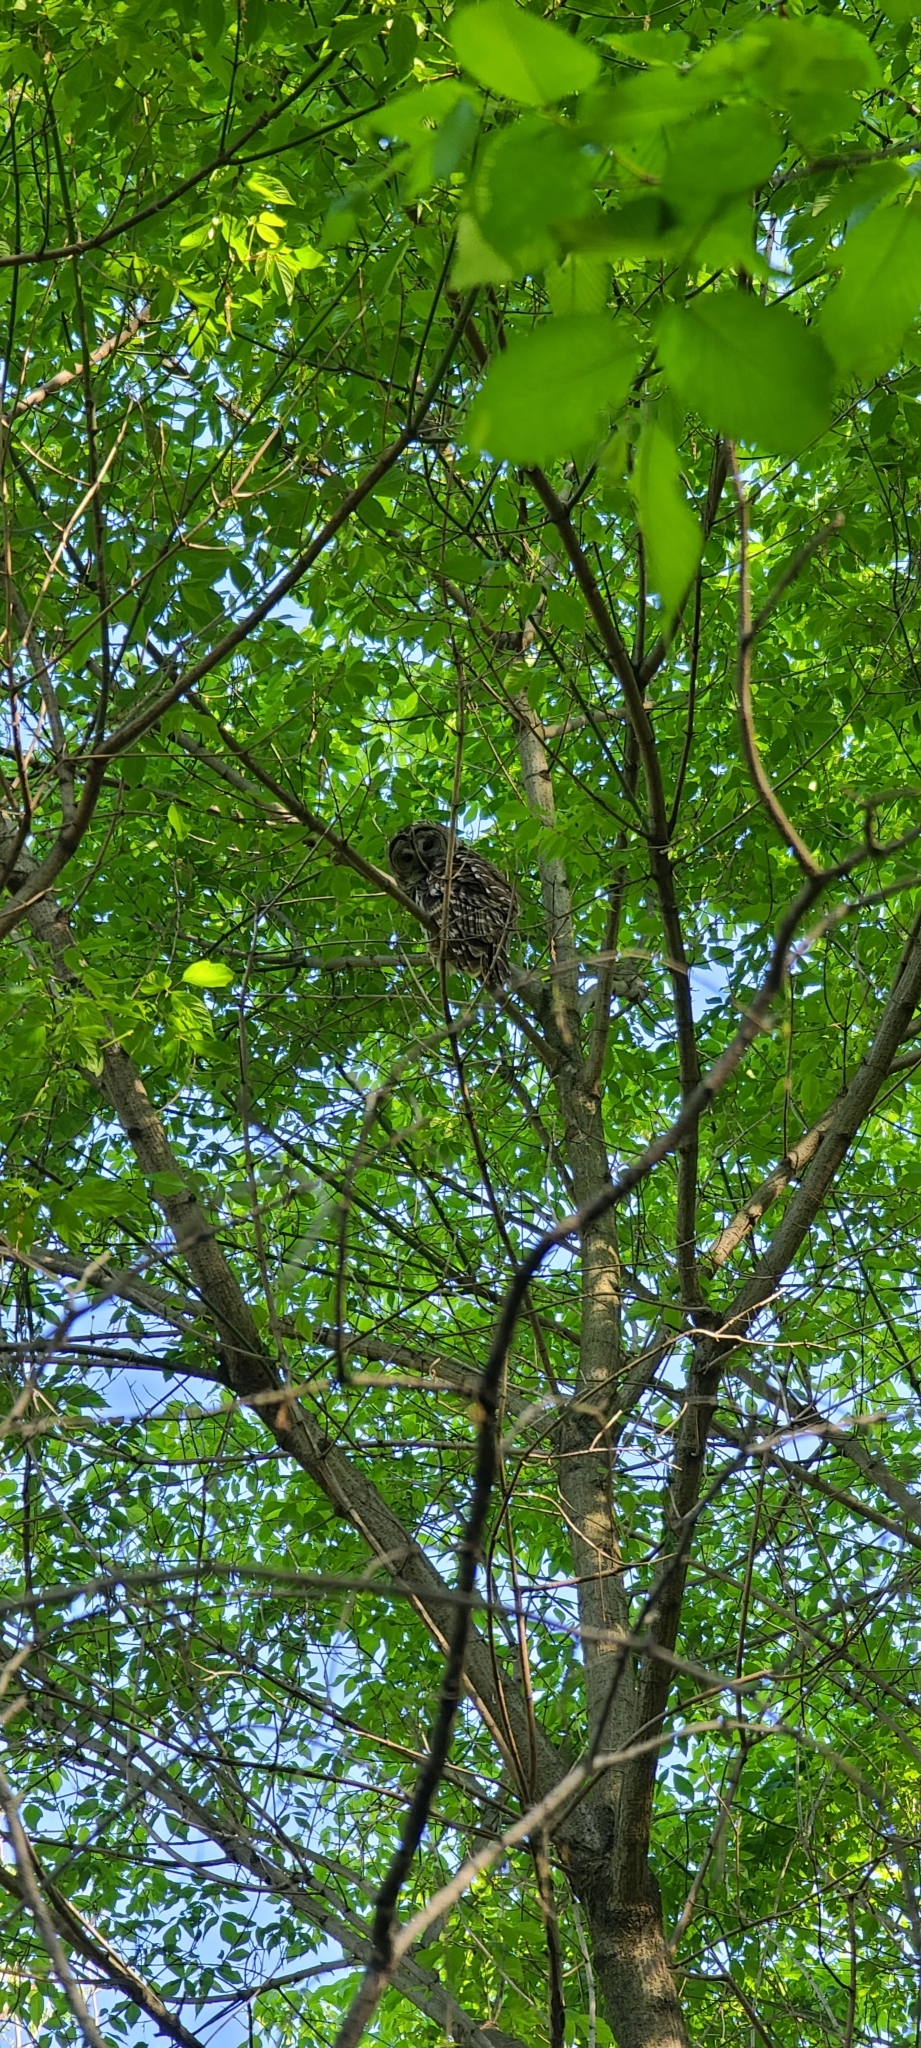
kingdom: Animalia
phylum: Chordata
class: Aves
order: Strigiformes
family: Strigidae
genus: Strix
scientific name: Strix varia
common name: Barred owl
